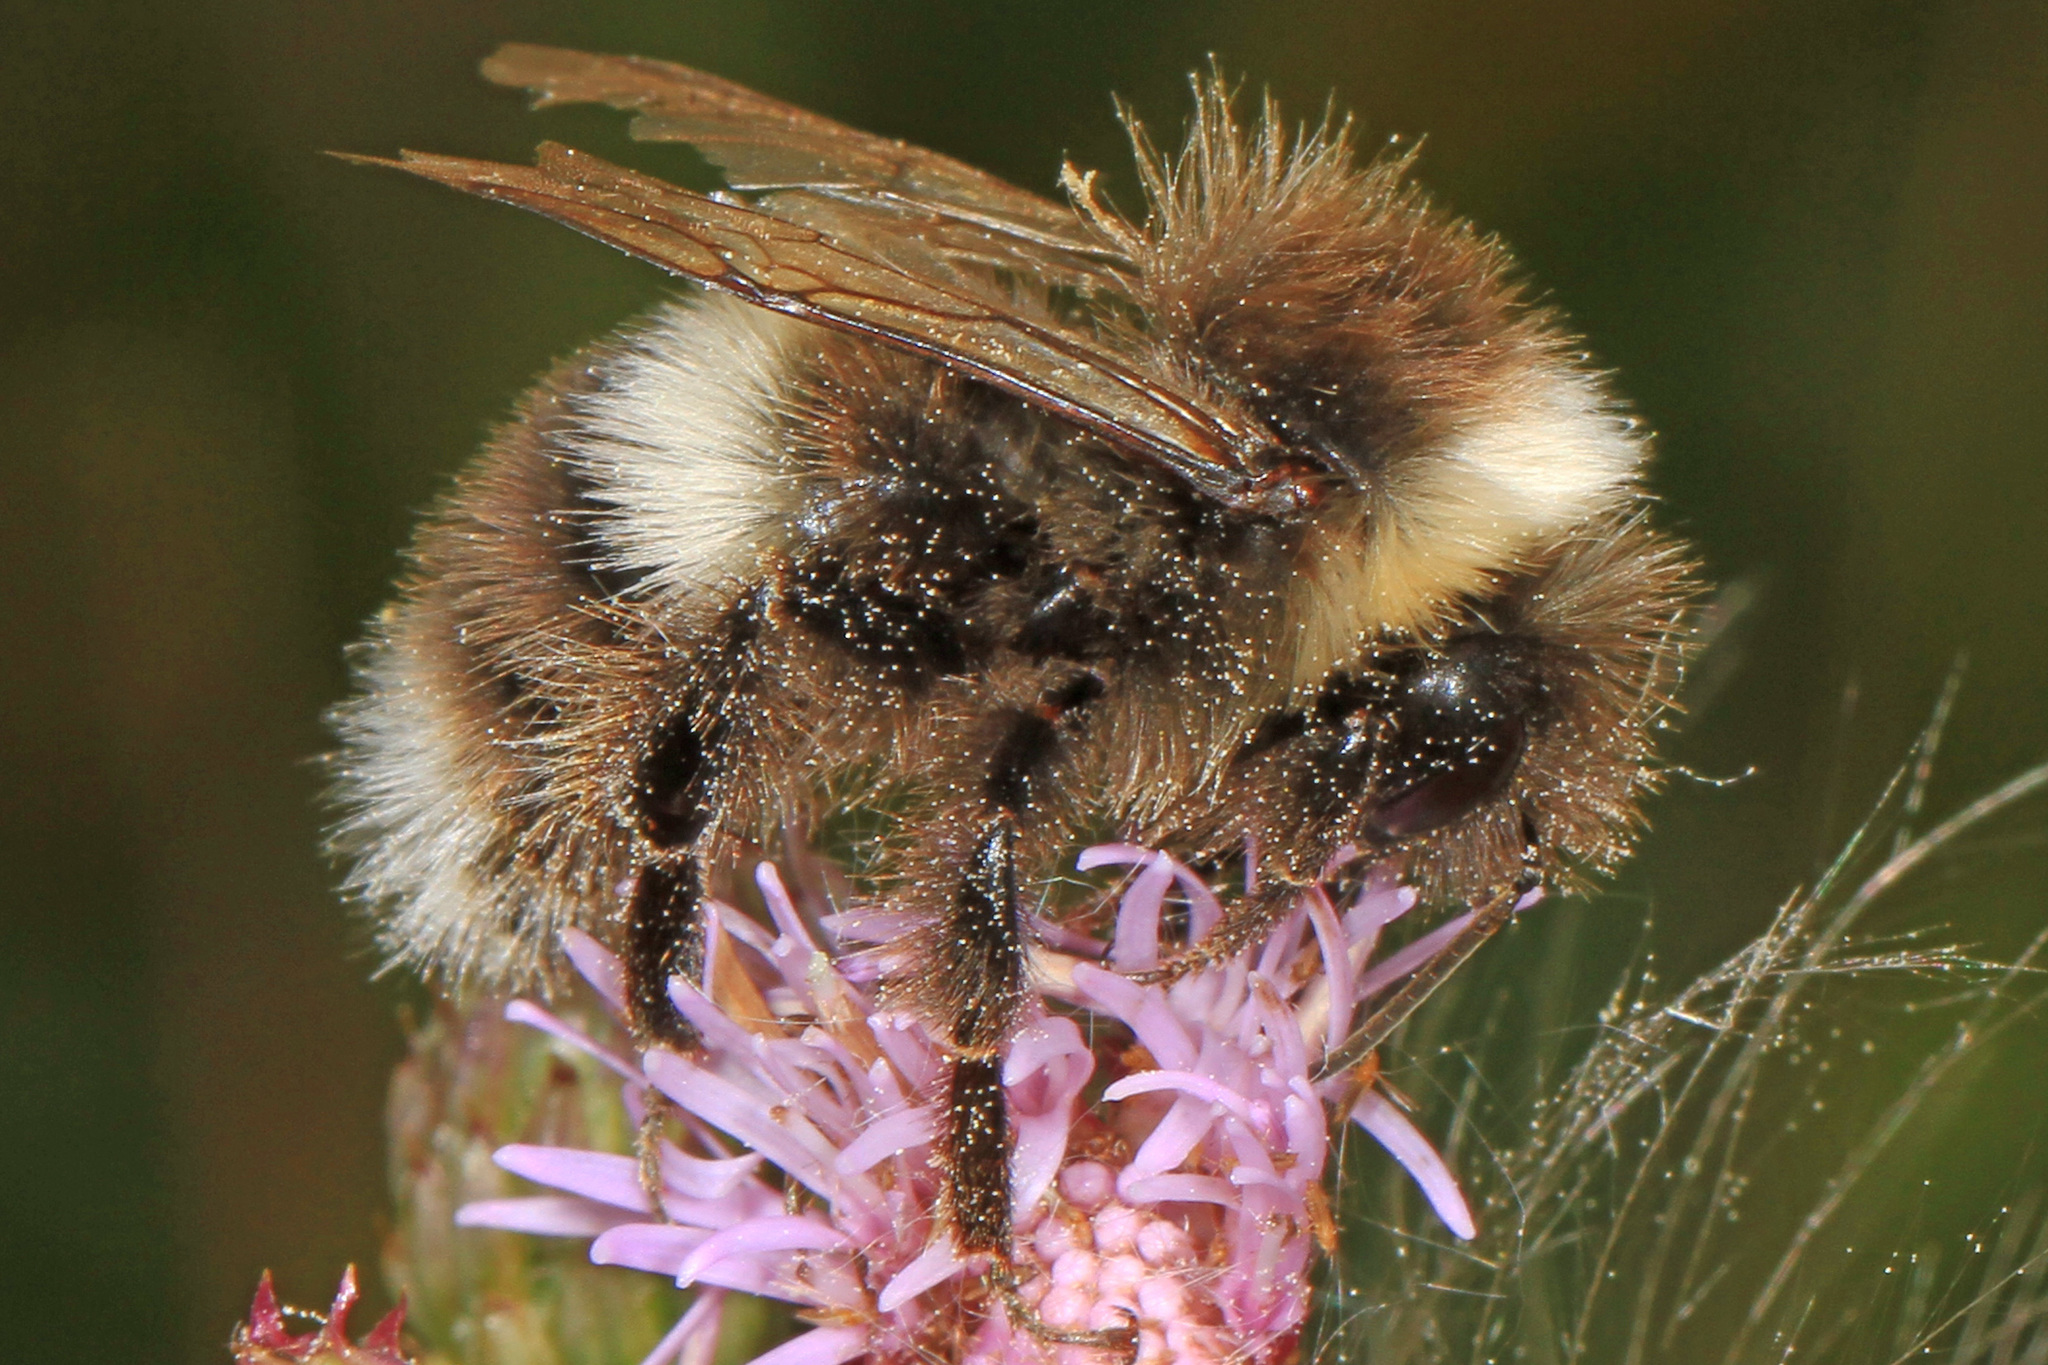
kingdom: Animalia
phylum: Arthropoda
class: Insecta
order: Hymenoptera
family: Apidae
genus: Bombus
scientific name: Bombus cryptarum
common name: Cryptic bumblebee
